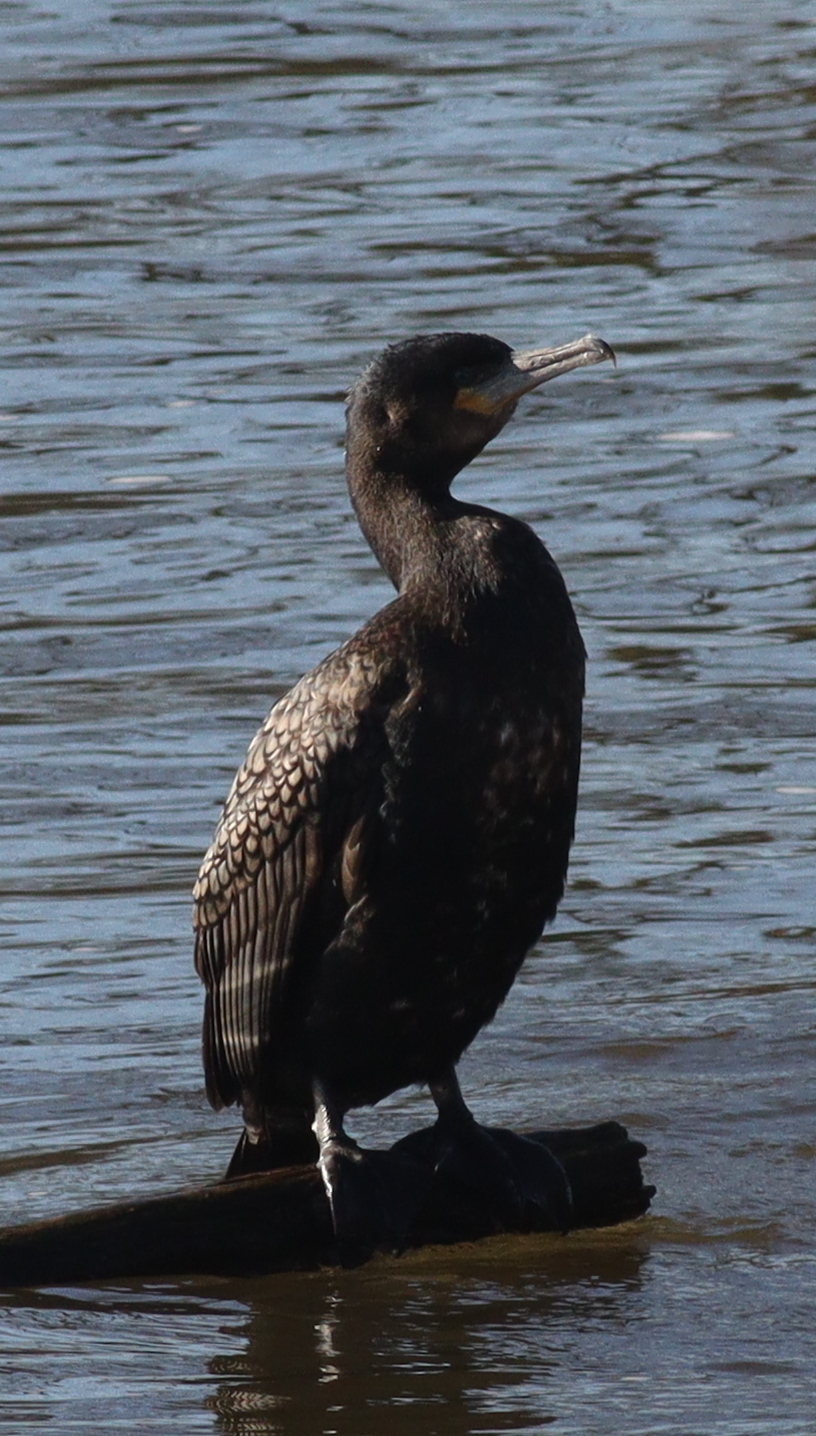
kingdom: Animalia
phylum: Chordata
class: Aves
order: Suliformes
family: Phalacrocoracidae
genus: Phalacrocorax
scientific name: Phalacrocorax carbo
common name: Great cormorant
